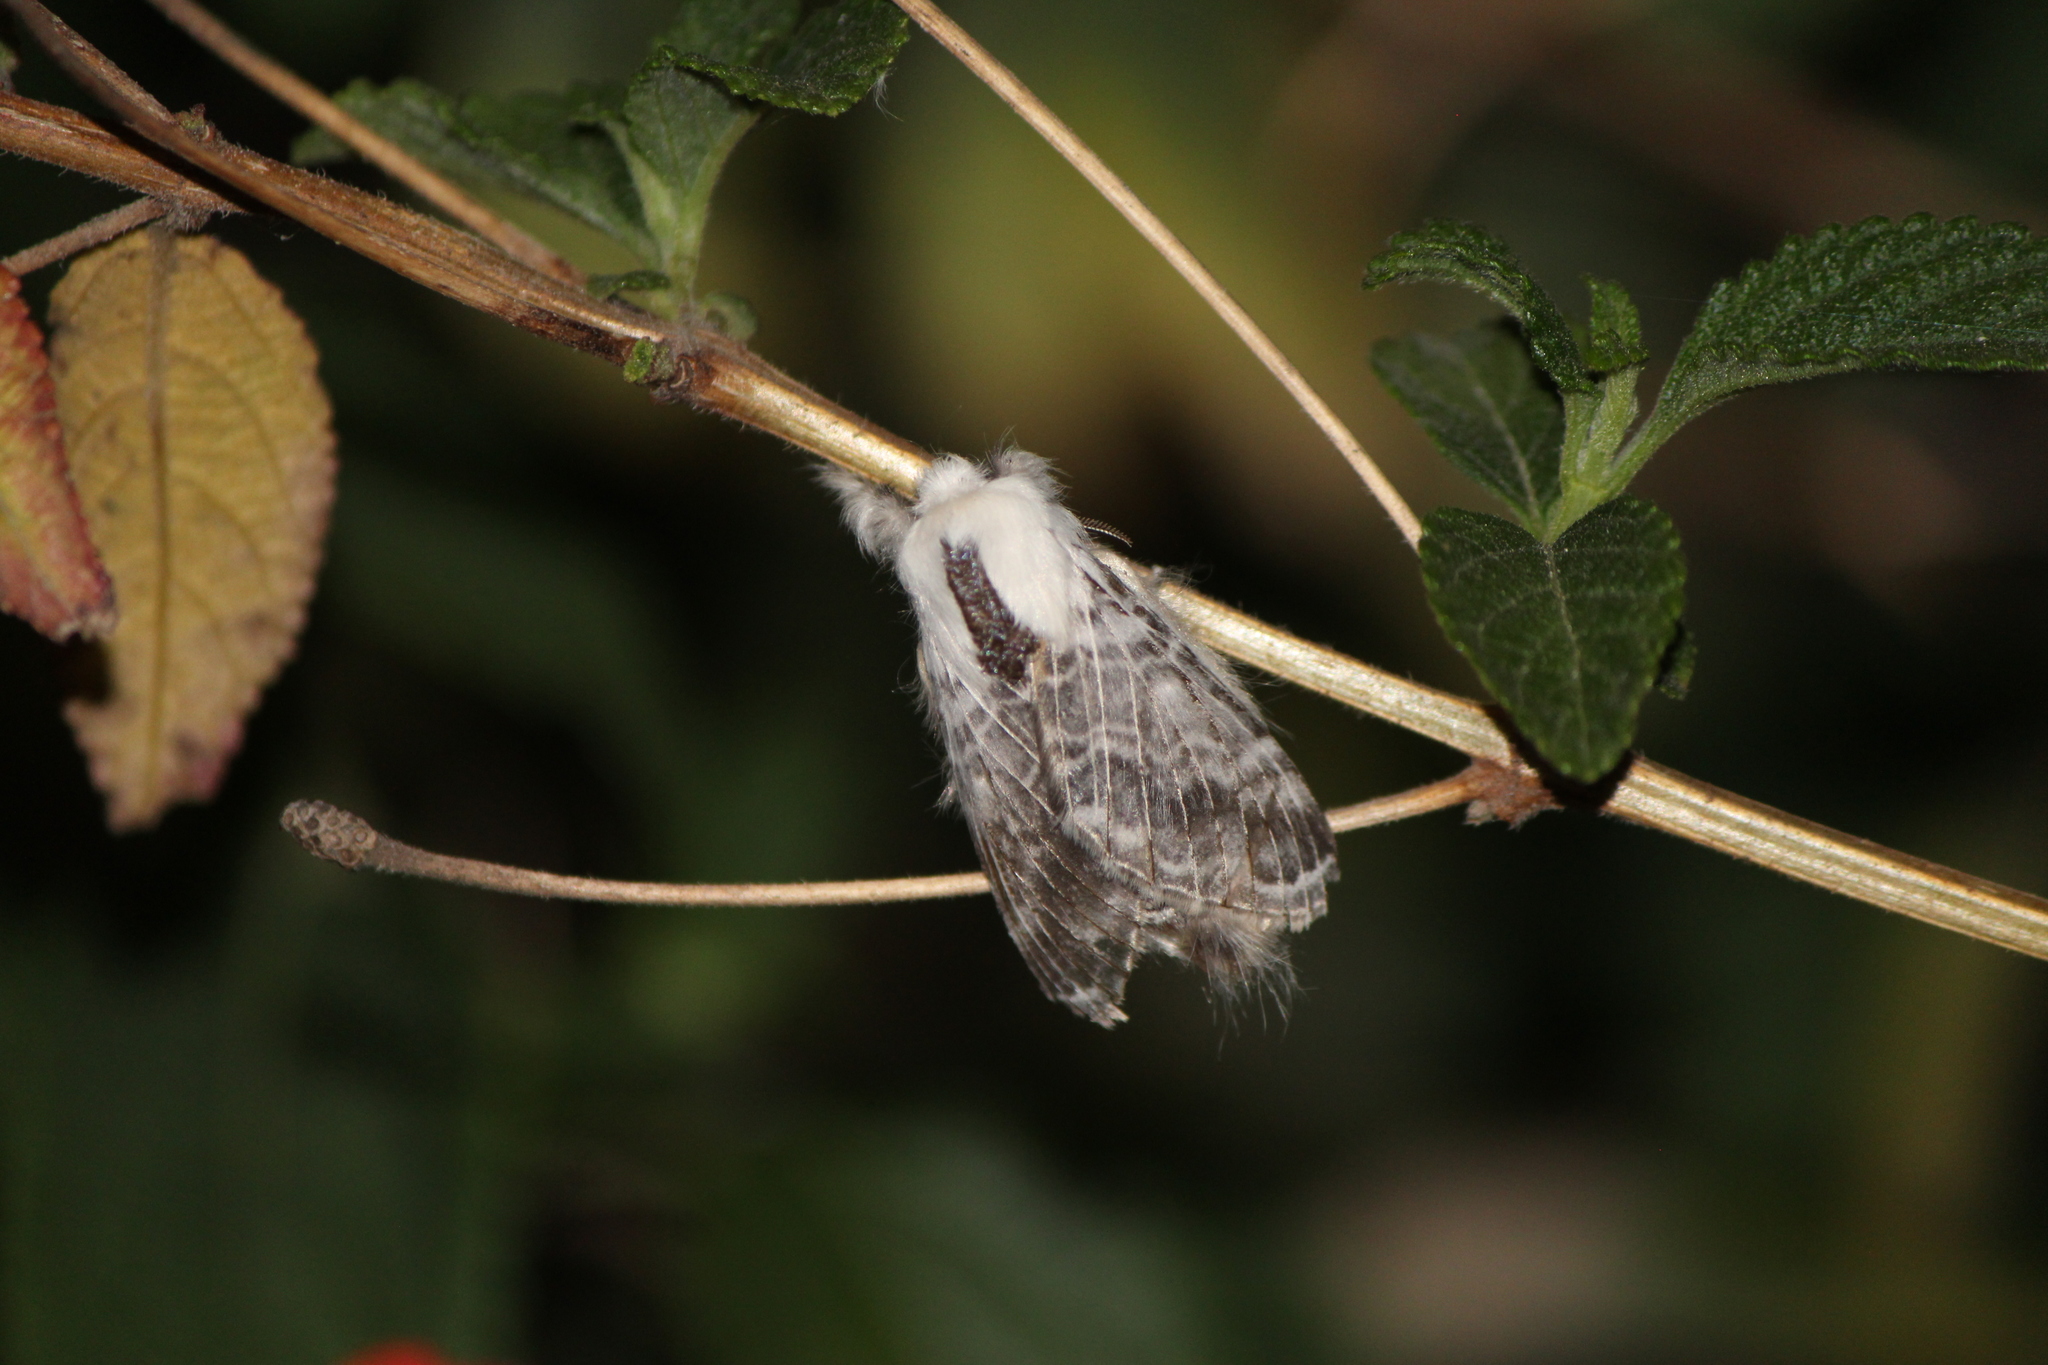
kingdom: Animalia
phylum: Arthropoda
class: Insecta
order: Lepidoptera
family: Lasiocampidae
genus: Tolype
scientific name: Tolype velleda
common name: Large tolype moth
